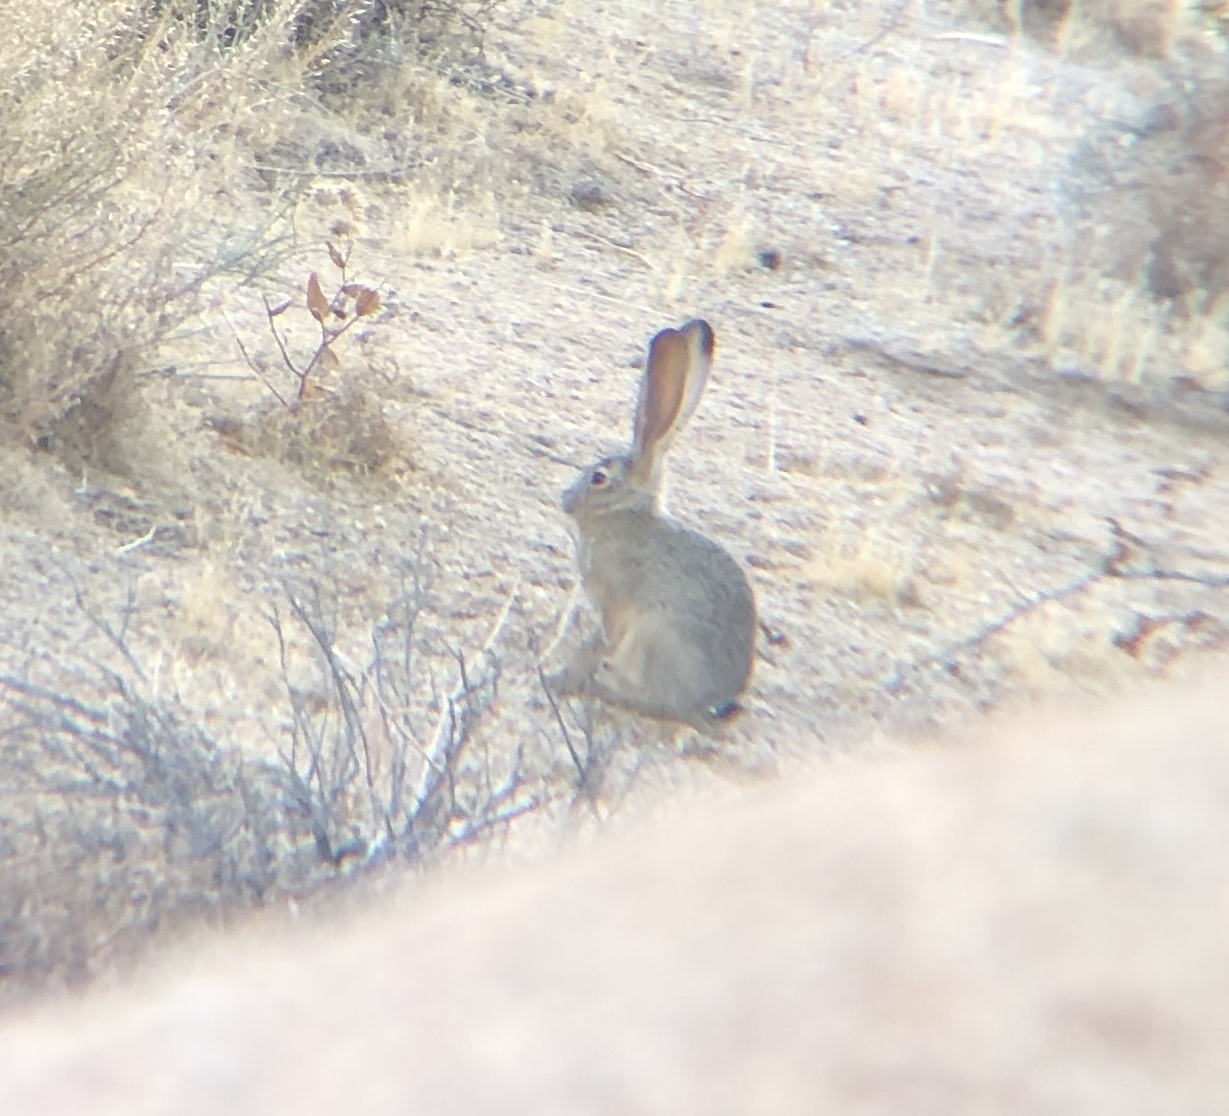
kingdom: Animalia
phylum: Chordata
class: Mammalia
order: Lagomorpha
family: Leporidae
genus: Lepus
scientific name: Lepus californicus
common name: Black-tailed jackrabbit
